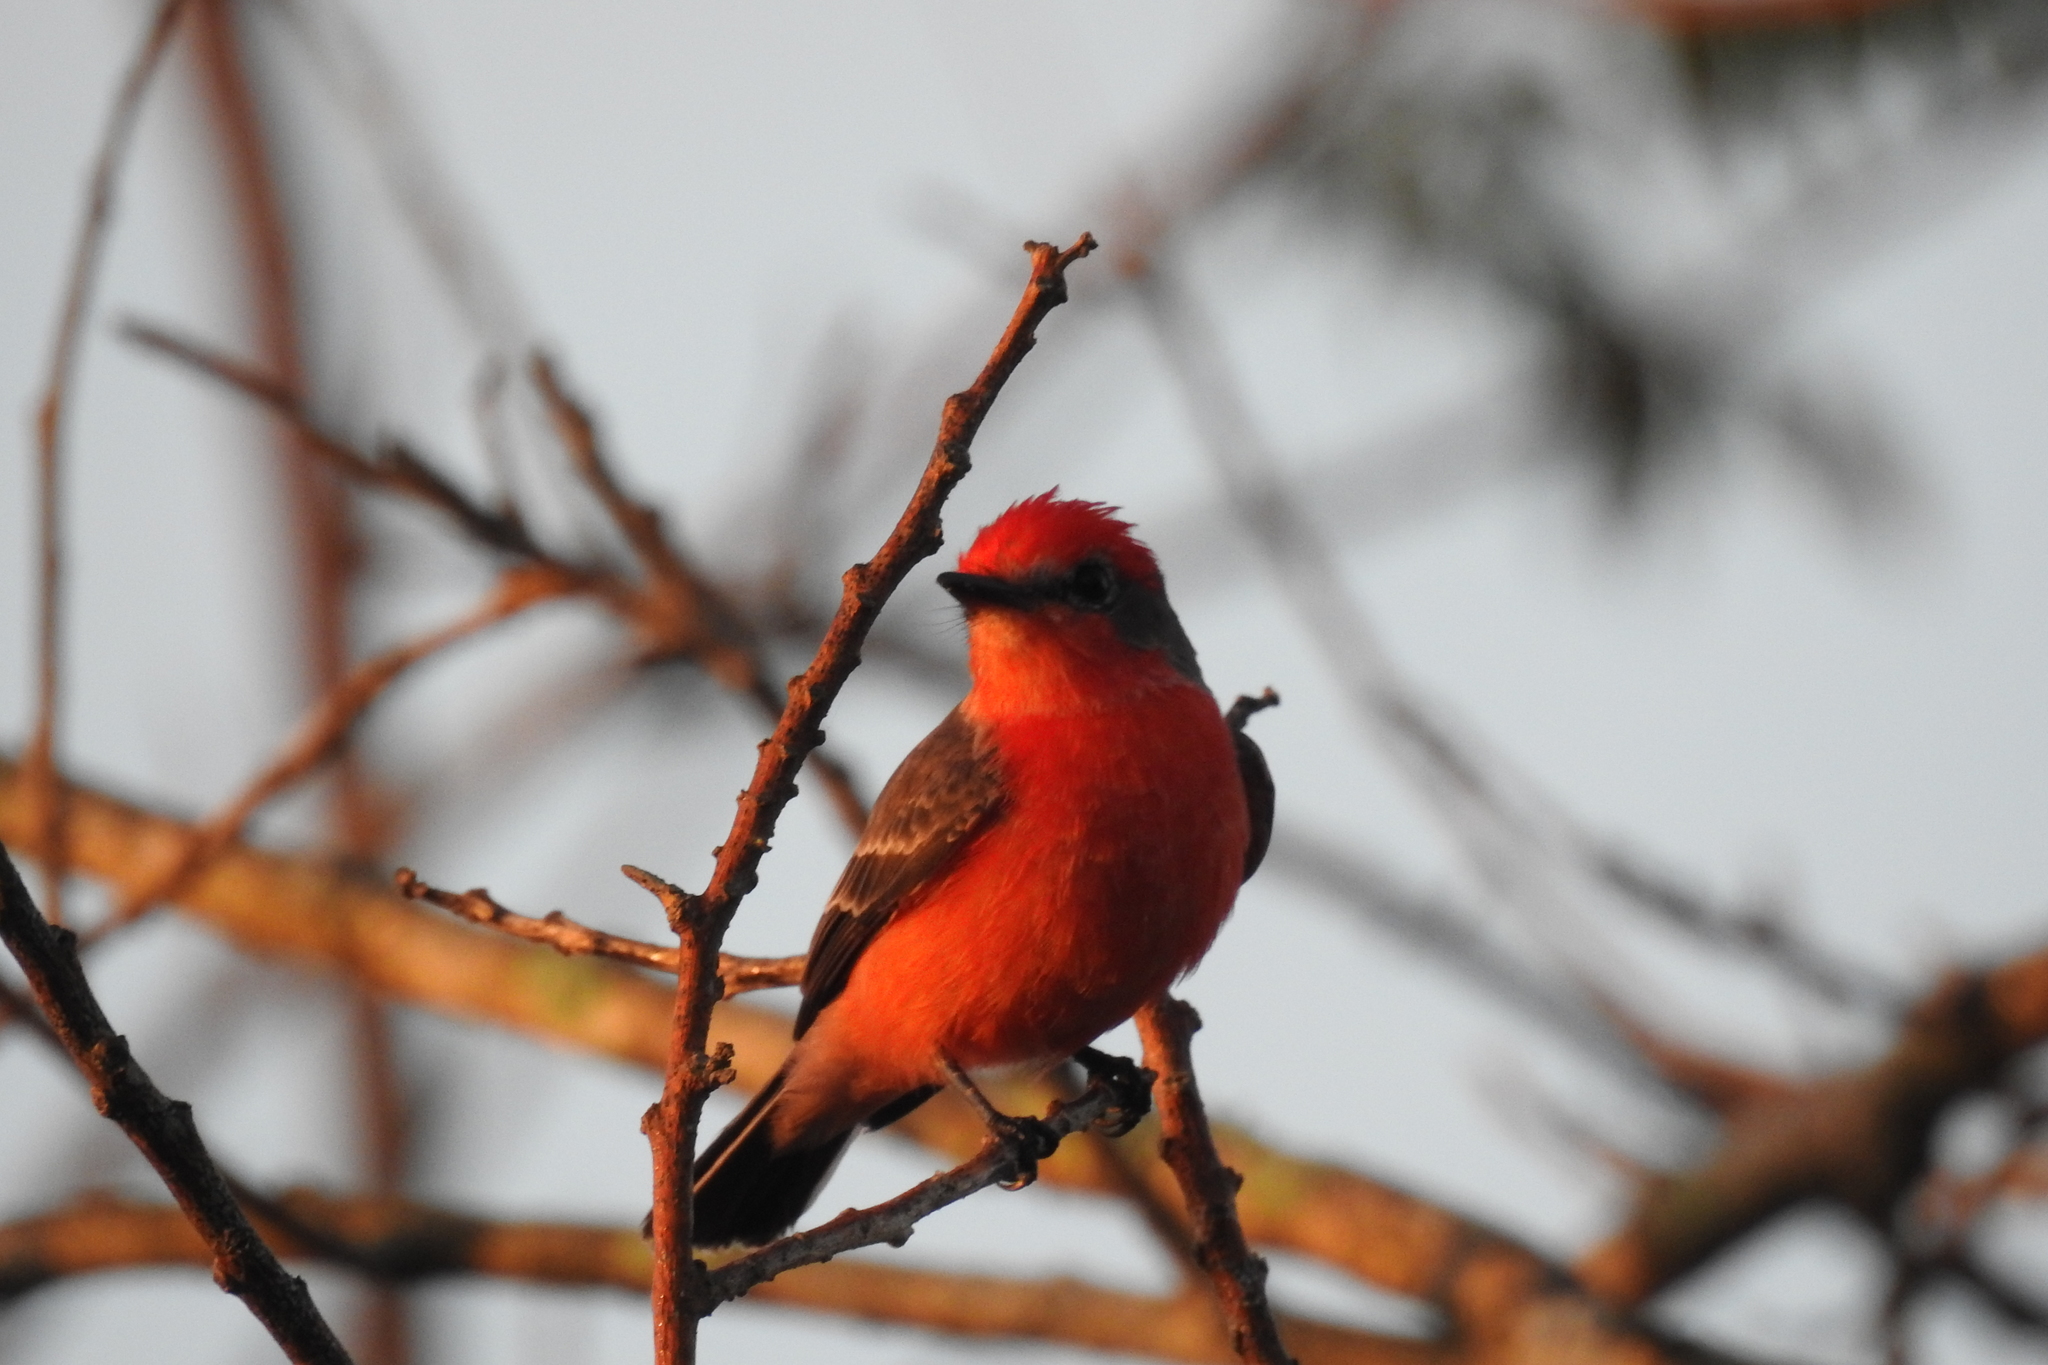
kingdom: Animalia
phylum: Chordata
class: Aves
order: Passeriformes
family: Tyrannidae
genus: Pyrocephalus
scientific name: Pyrocephalus rubinus
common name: Vermilion flycatcher
